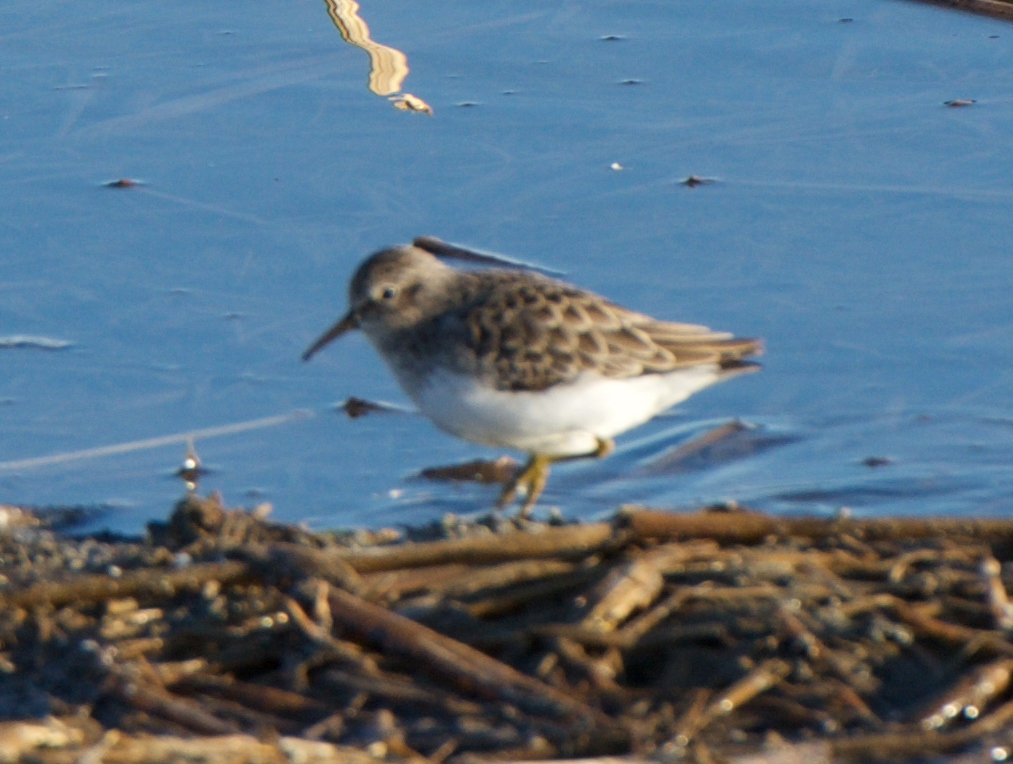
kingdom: Animalia
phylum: Chordata
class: Aves
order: Charadriiformes
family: Scolopacidae
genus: Calidris
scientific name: Calidris minutilla
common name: Least sandpiper
